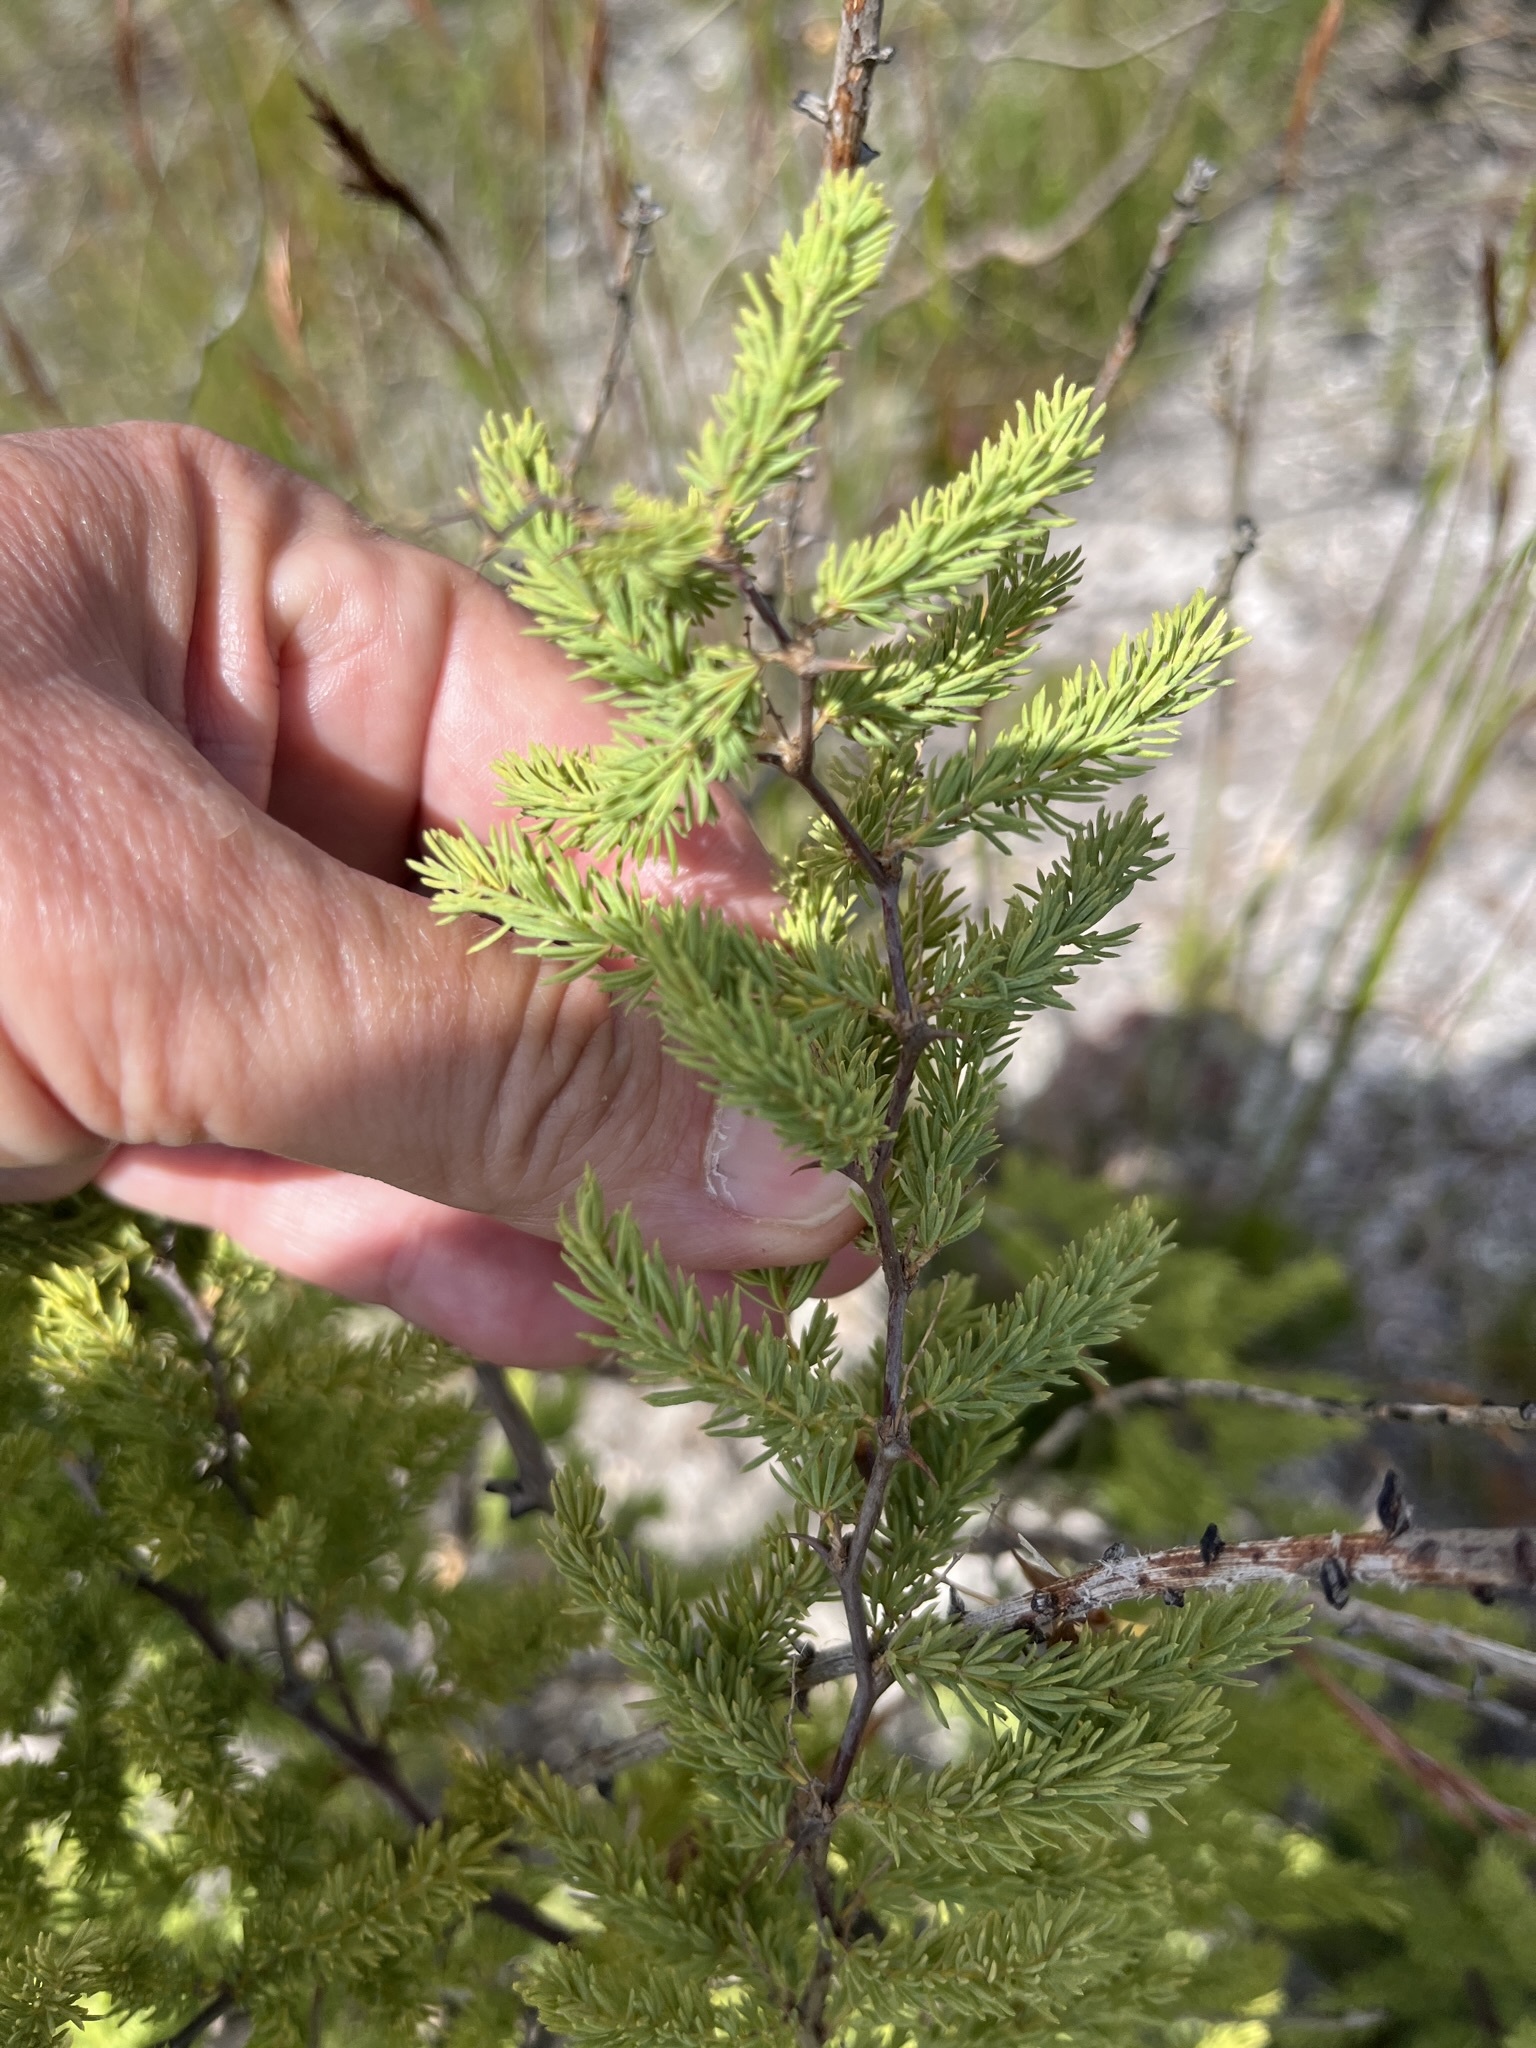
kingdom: Plantae
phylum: Tracheophyta
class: Liliopsida
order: Asparagales
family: Asparagaceae
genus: Asparagus
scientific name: Asparagus rubicundus
